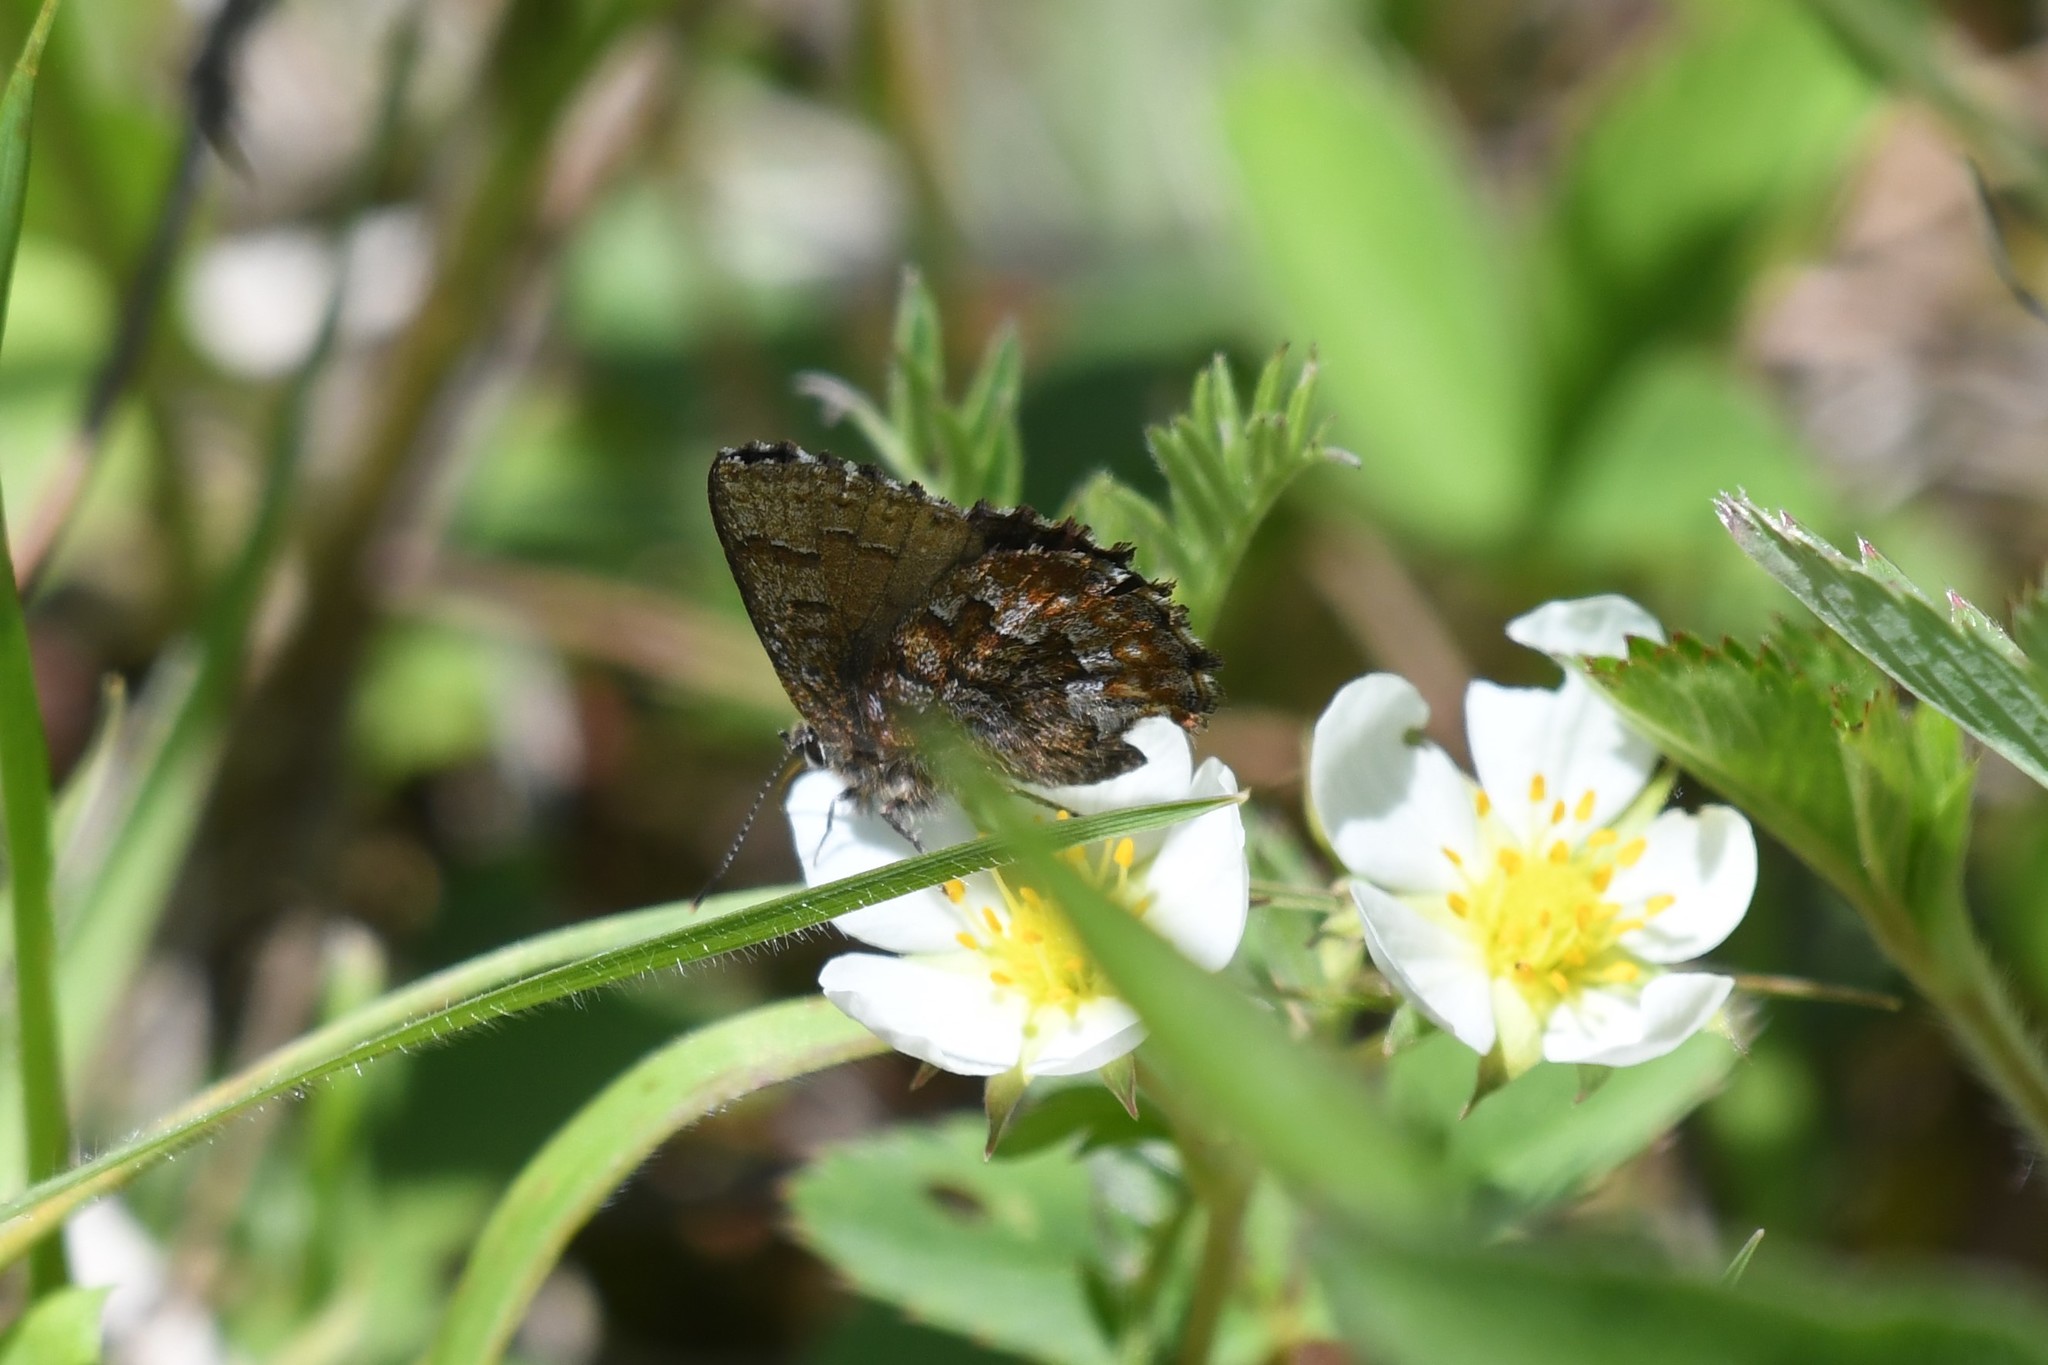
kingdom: Animalia
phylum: Arthropoda
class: Insecta
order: Lepidoptera
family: Lycaenidae
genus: Incisalia
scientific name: Incisalia niphon
